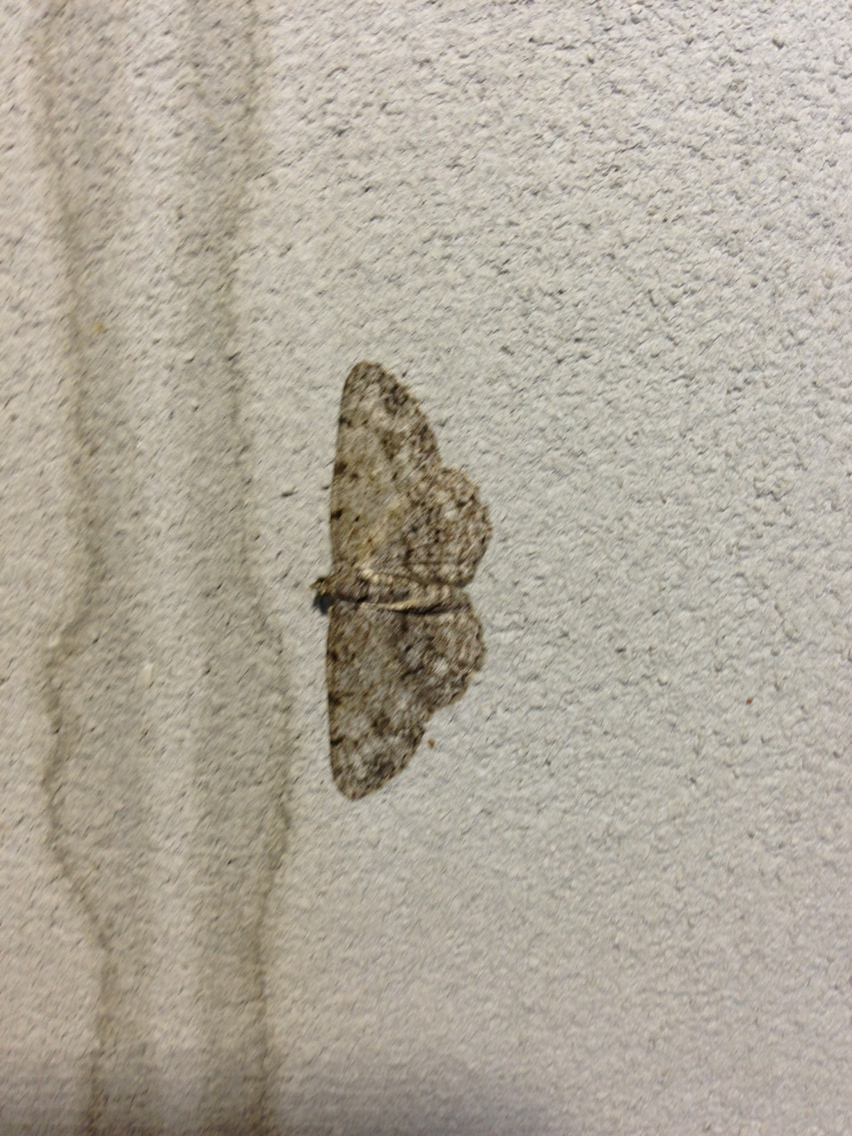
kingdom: Animalia
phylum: Arthropoda
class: Insecta
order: Lepidoptera
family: Geometridae
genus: Protoboarmia
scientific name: Protoboarmia porcelaria
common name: Porcelain gray
